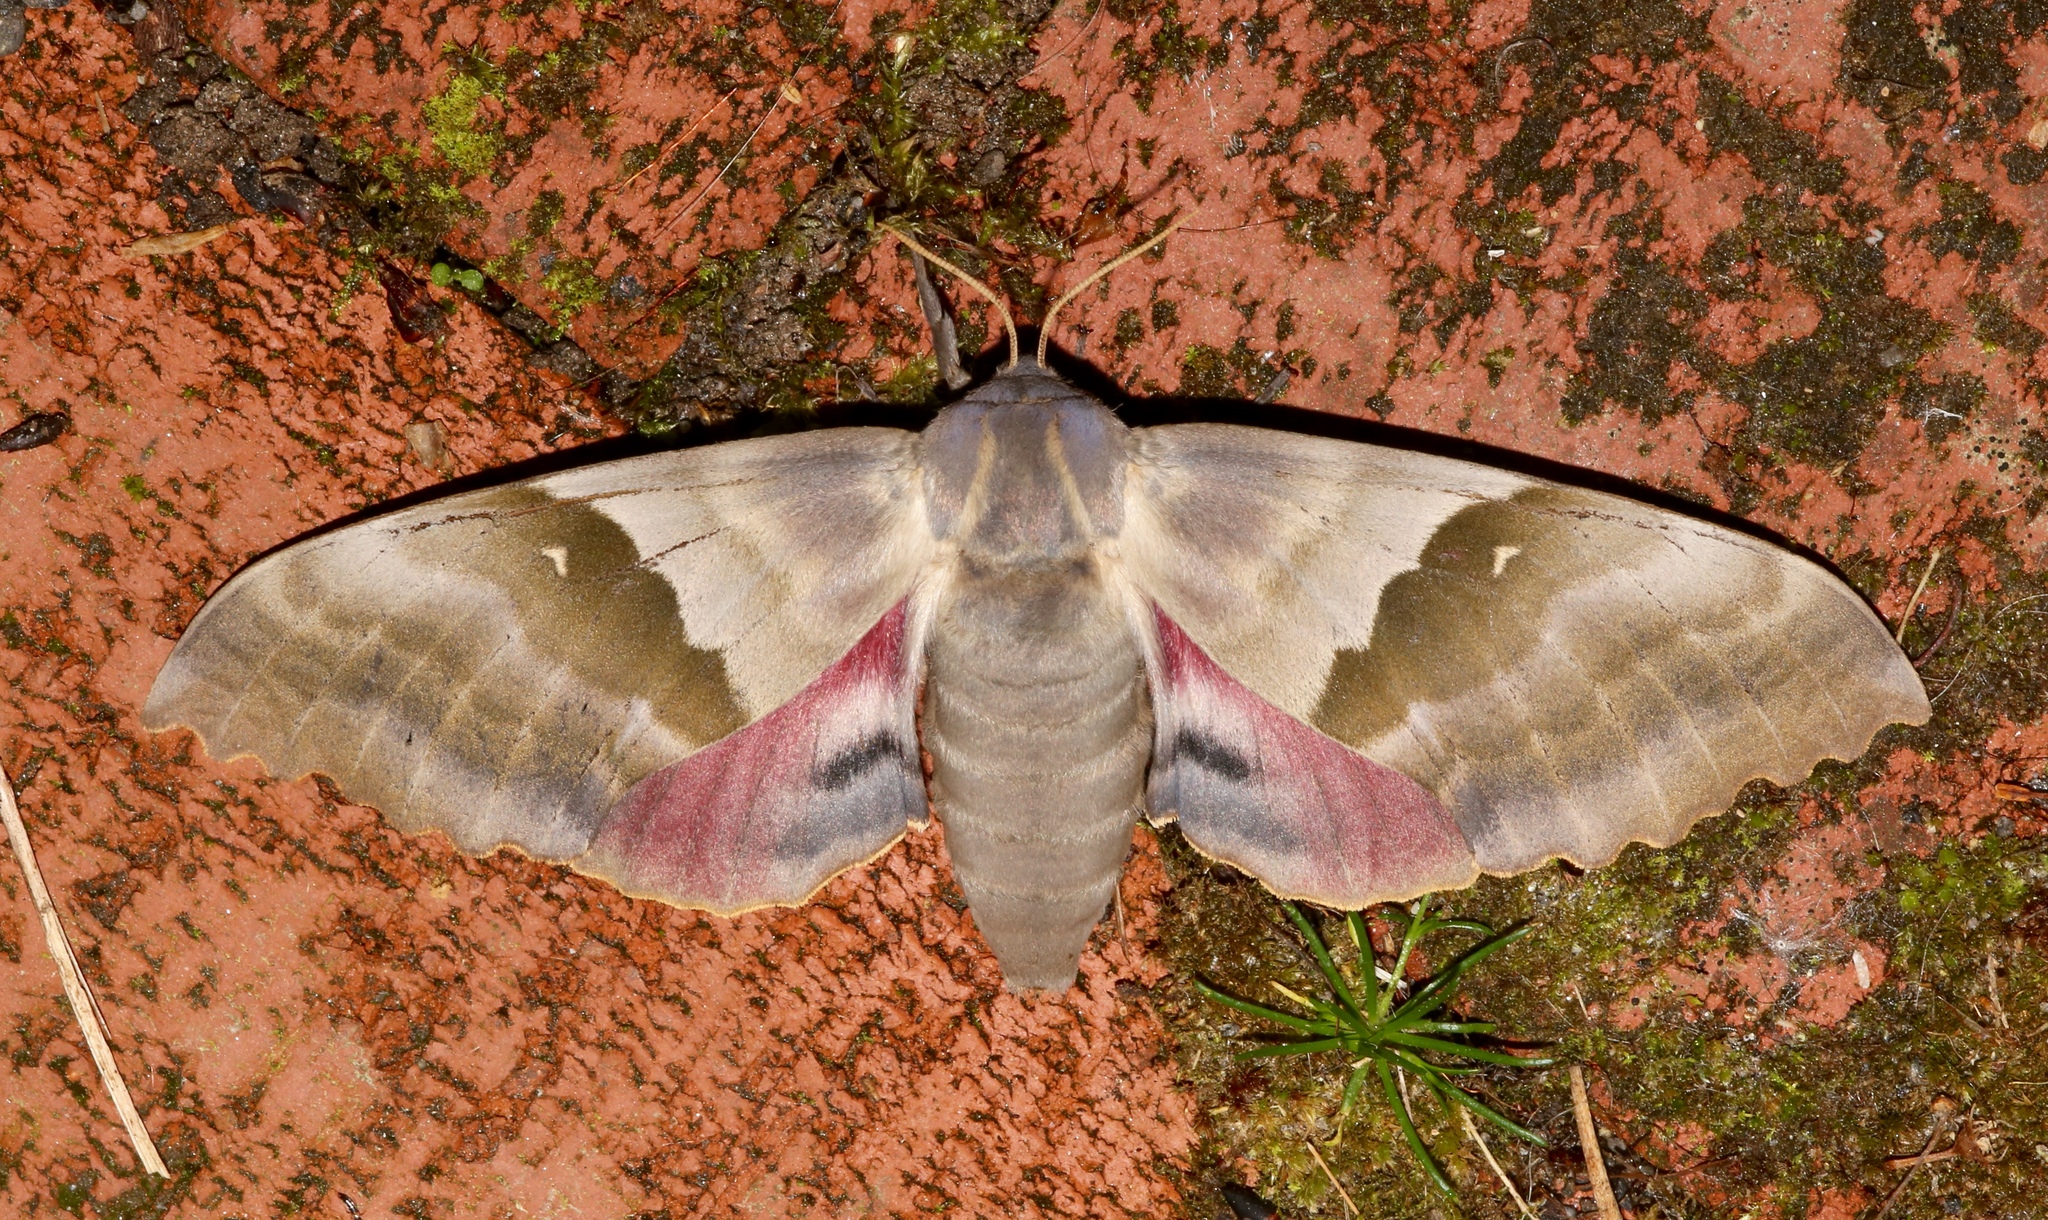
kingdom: Animalia
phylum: Arthropoda
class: Insecta
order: Lepidoptera
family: Sphingidae
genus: Pachysphinx
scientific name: Pachysphinx modesta
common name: Big poplar sphinx
